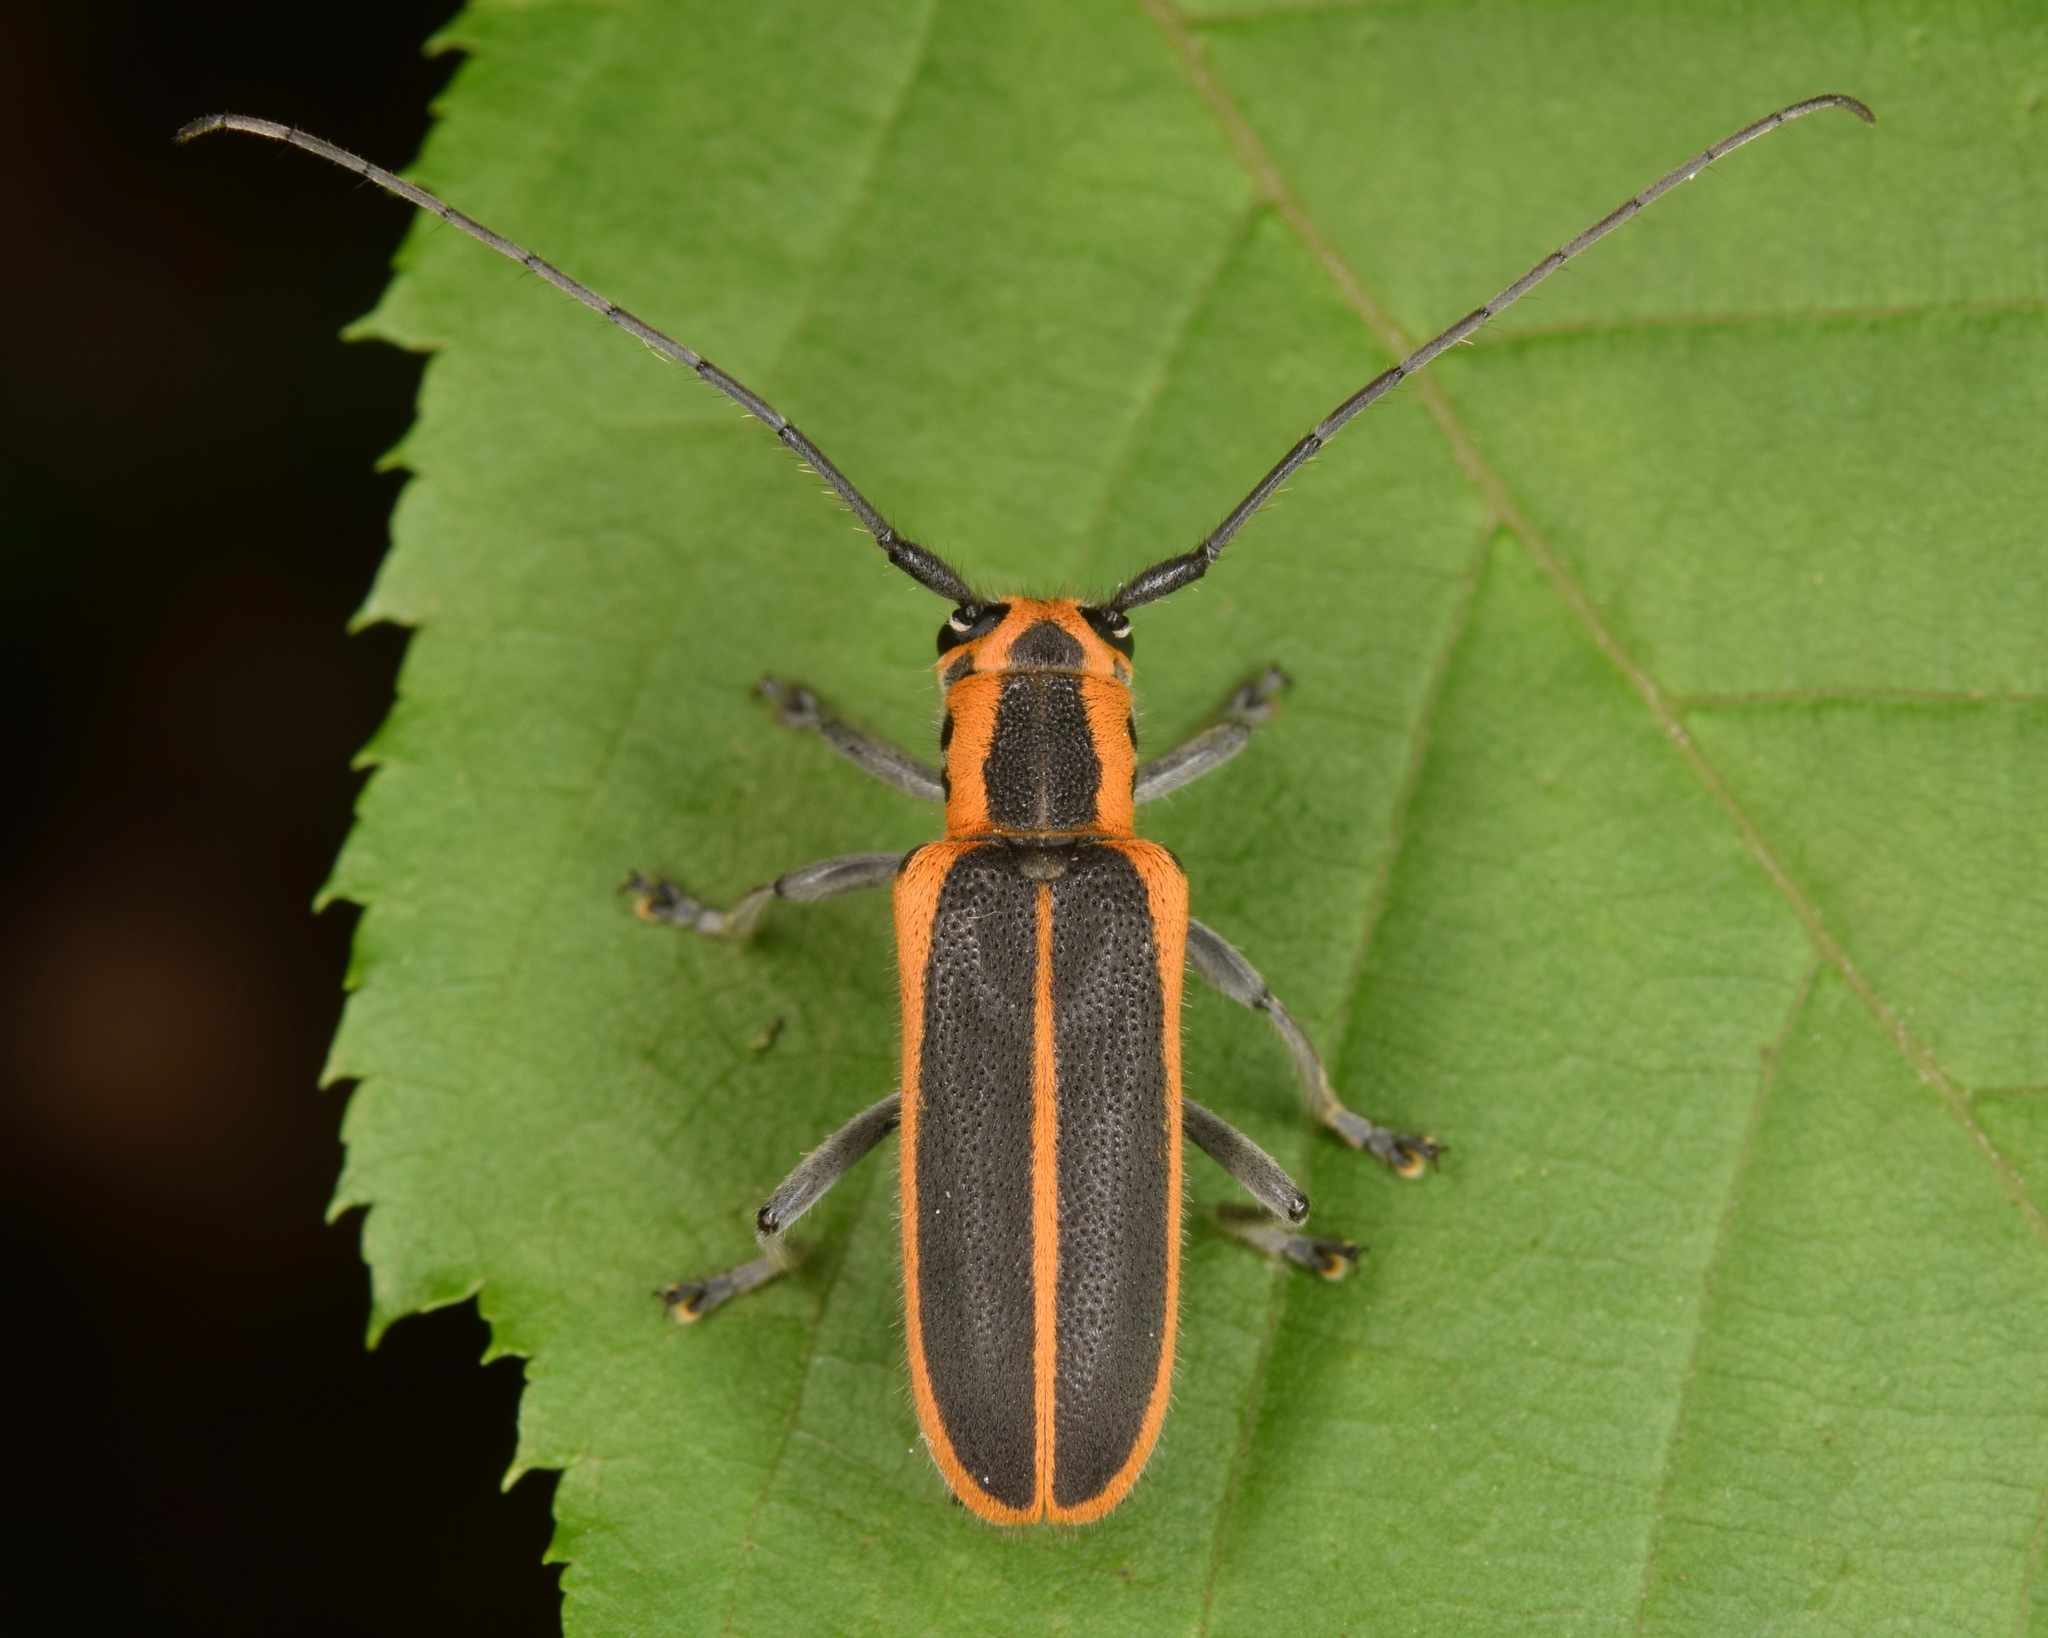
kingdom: Animalia
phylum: Arthropoda
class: Insecta
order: Coleoptera
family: Cerambycidae
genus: Saperda
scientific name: Saperda lateralis
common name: Red-edged saperda
